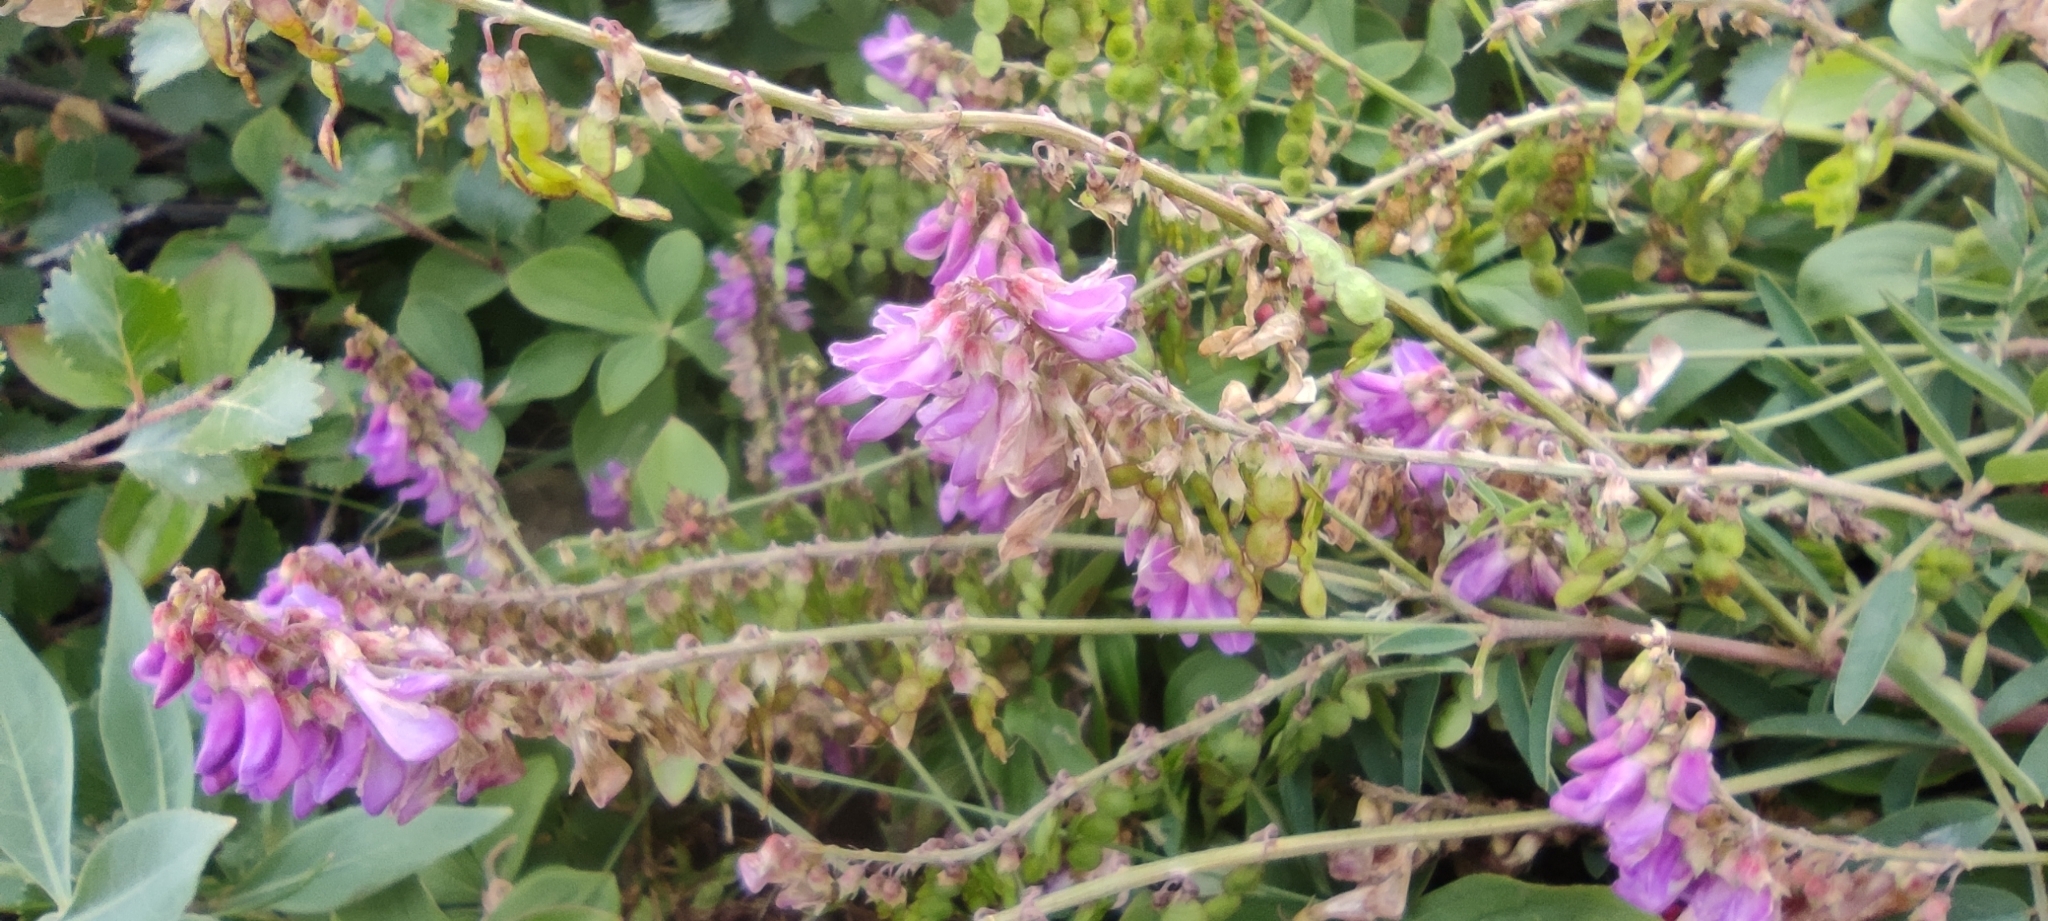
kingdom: Plantae
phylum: Tracheophyta
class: Magnoliopsida
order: Fabales
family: Fabaceae
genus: Hedysarum
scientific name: Hedysarum alpinum
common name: Alpine sweet-vetch
